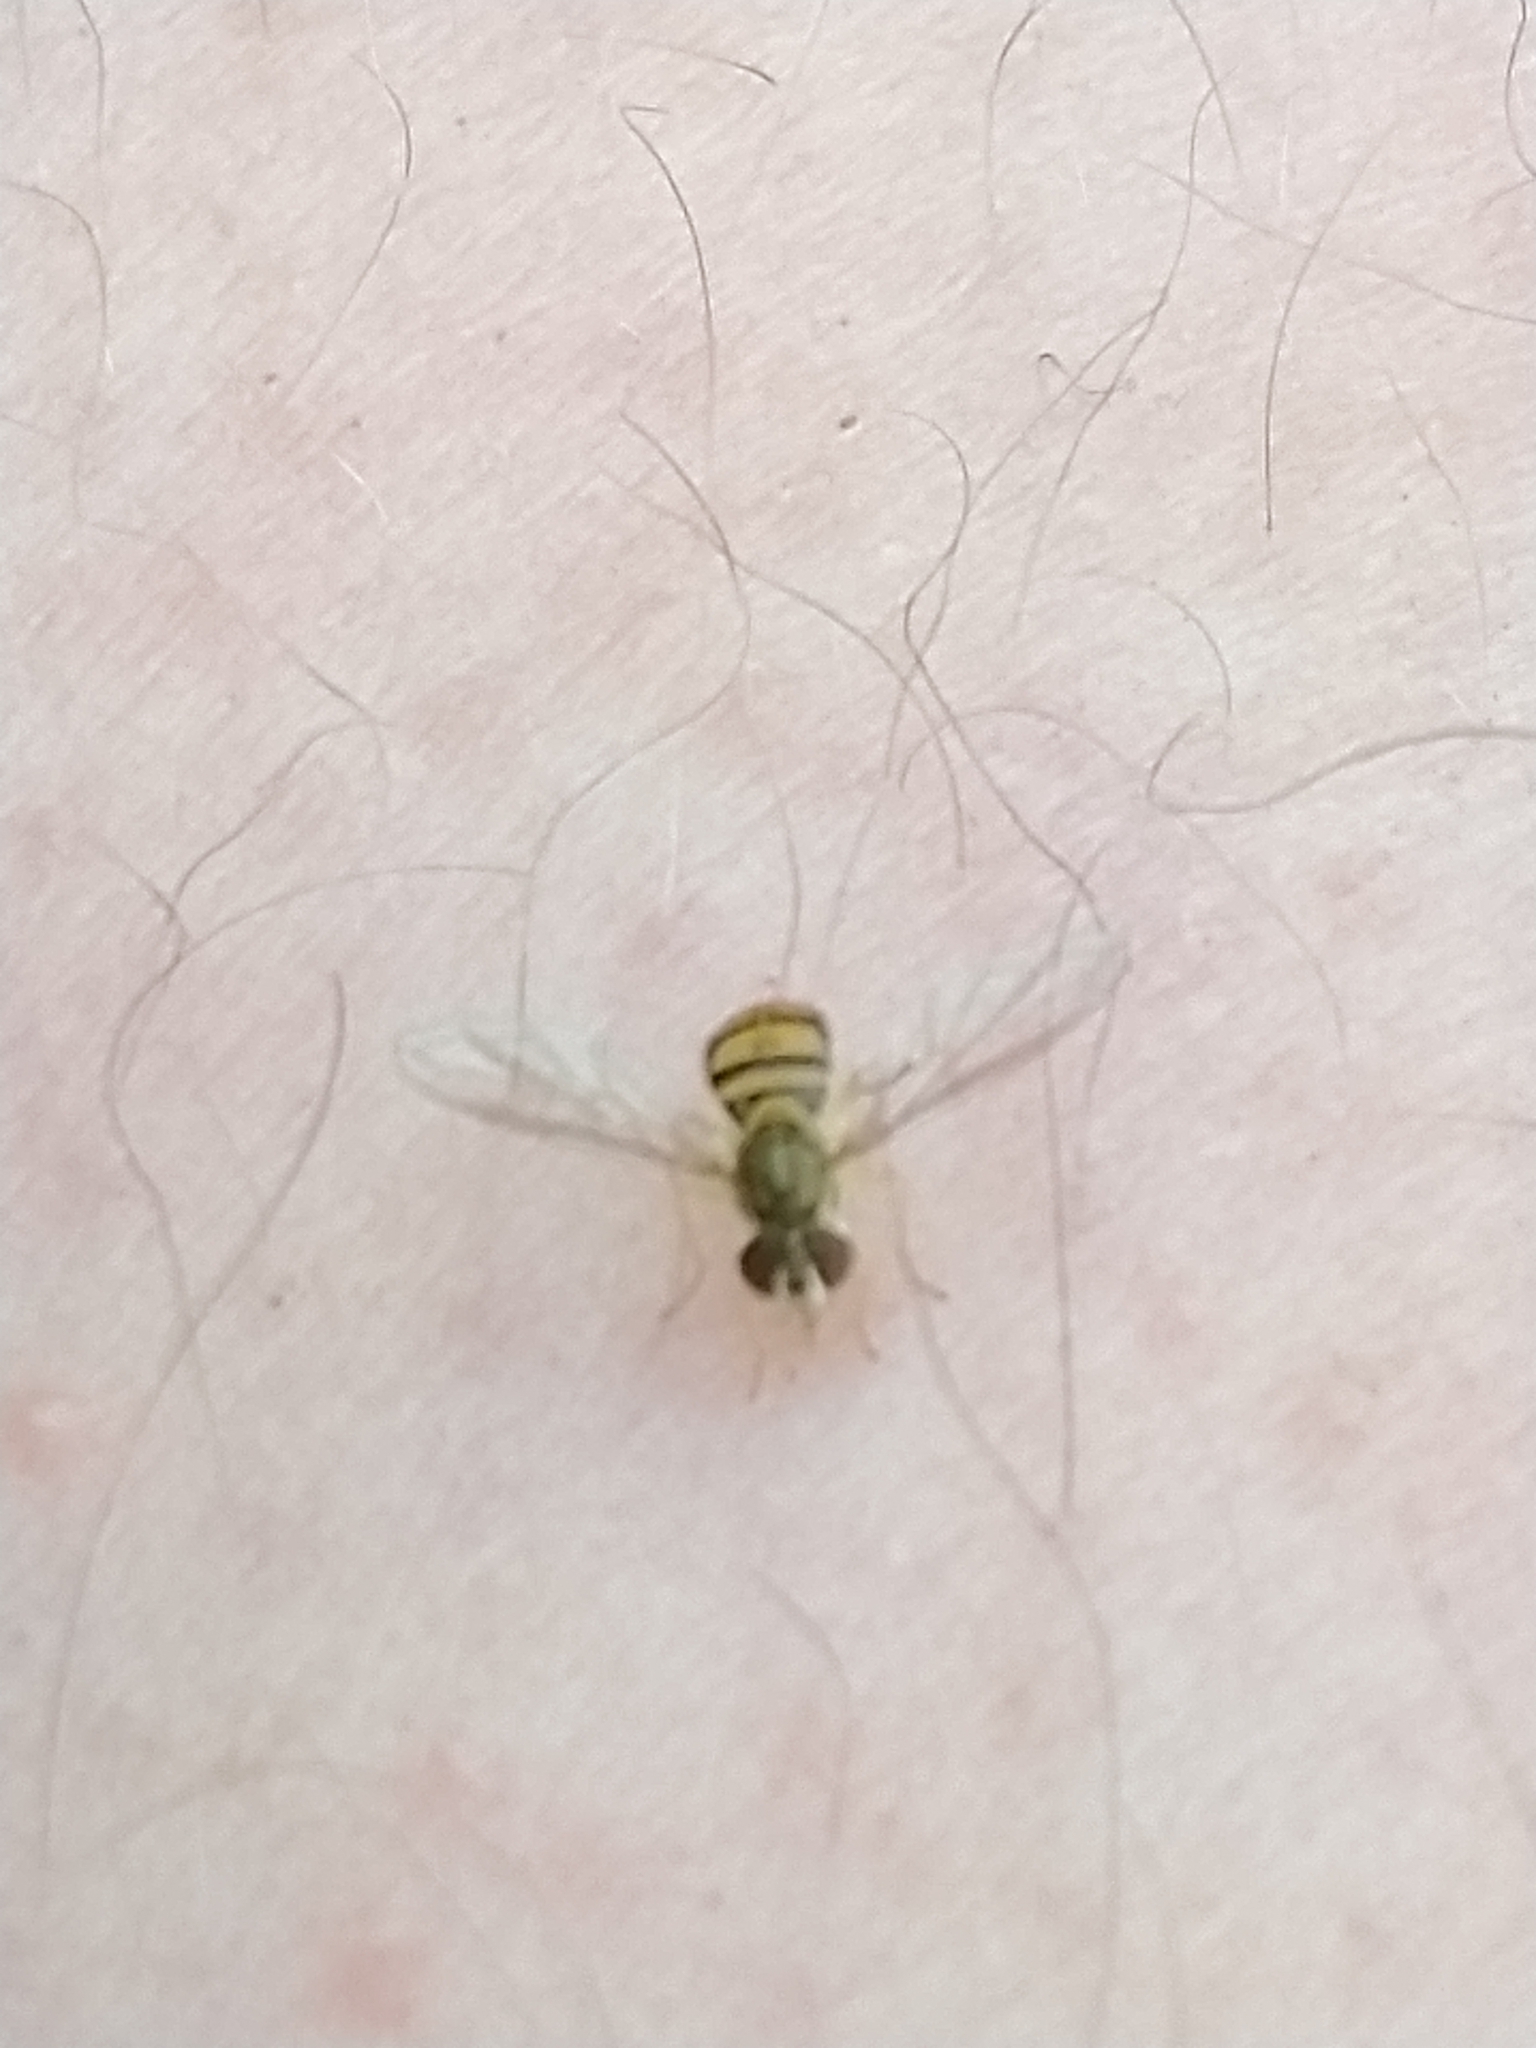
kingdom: Animalia
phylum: Arthropoda
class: Insecta
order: Diptera
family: Syrphidae
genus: Toxomerus
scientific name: Toxomerus marginatus
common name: Syrphid fly
